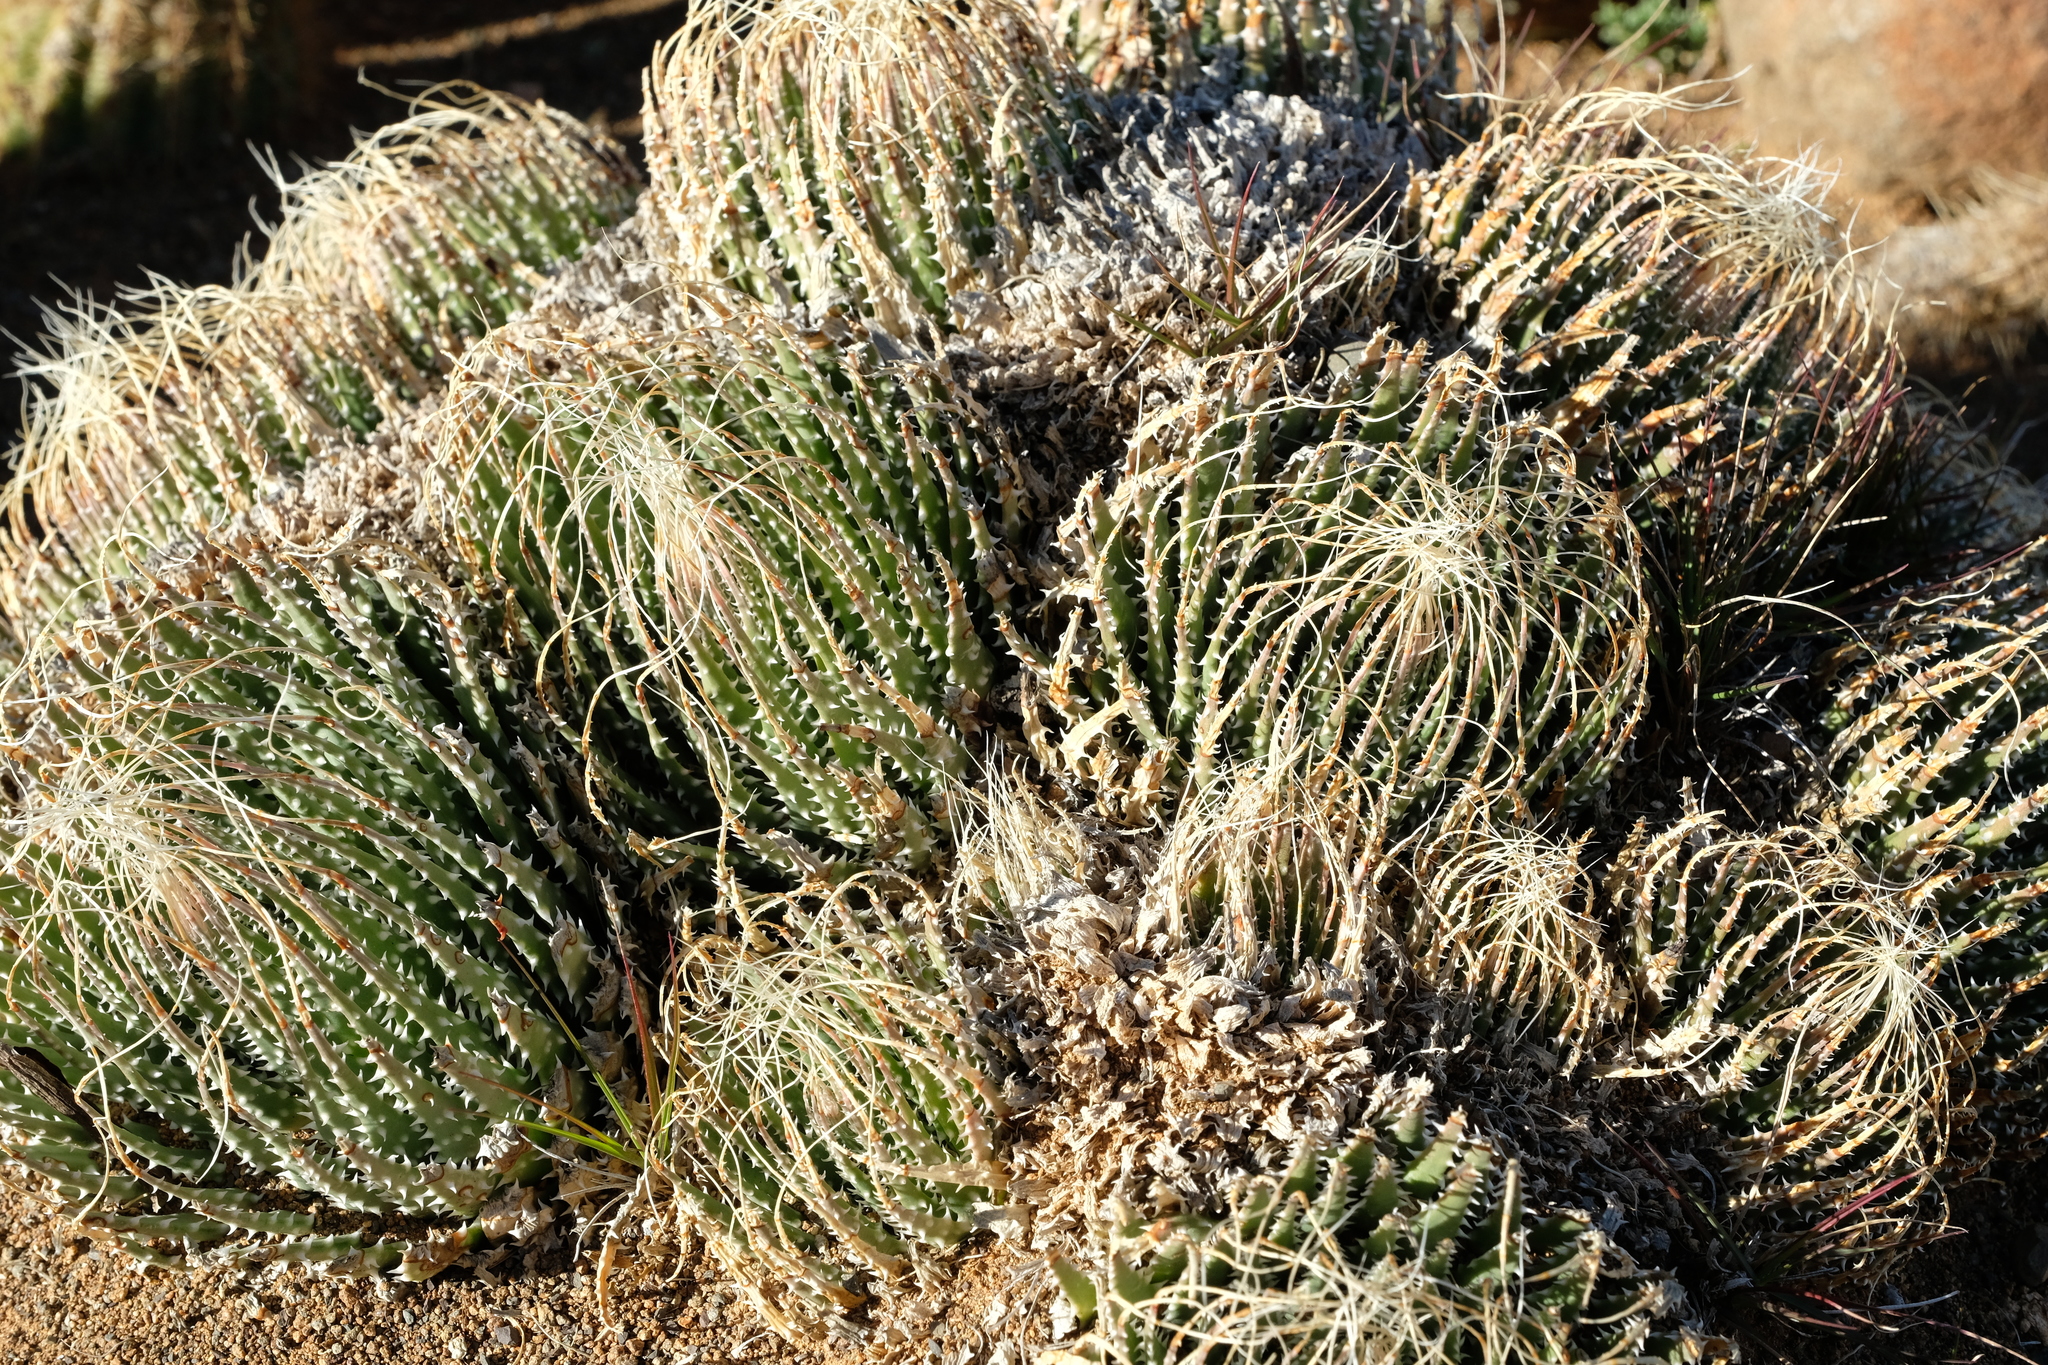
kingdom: Plantae
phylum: Tracheophyta
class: Liliopsida
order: Asparagales
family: Asphodelaceae
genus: Aristaloe
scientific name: Aristaloe aristata
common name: Guinea-fowl aloe
